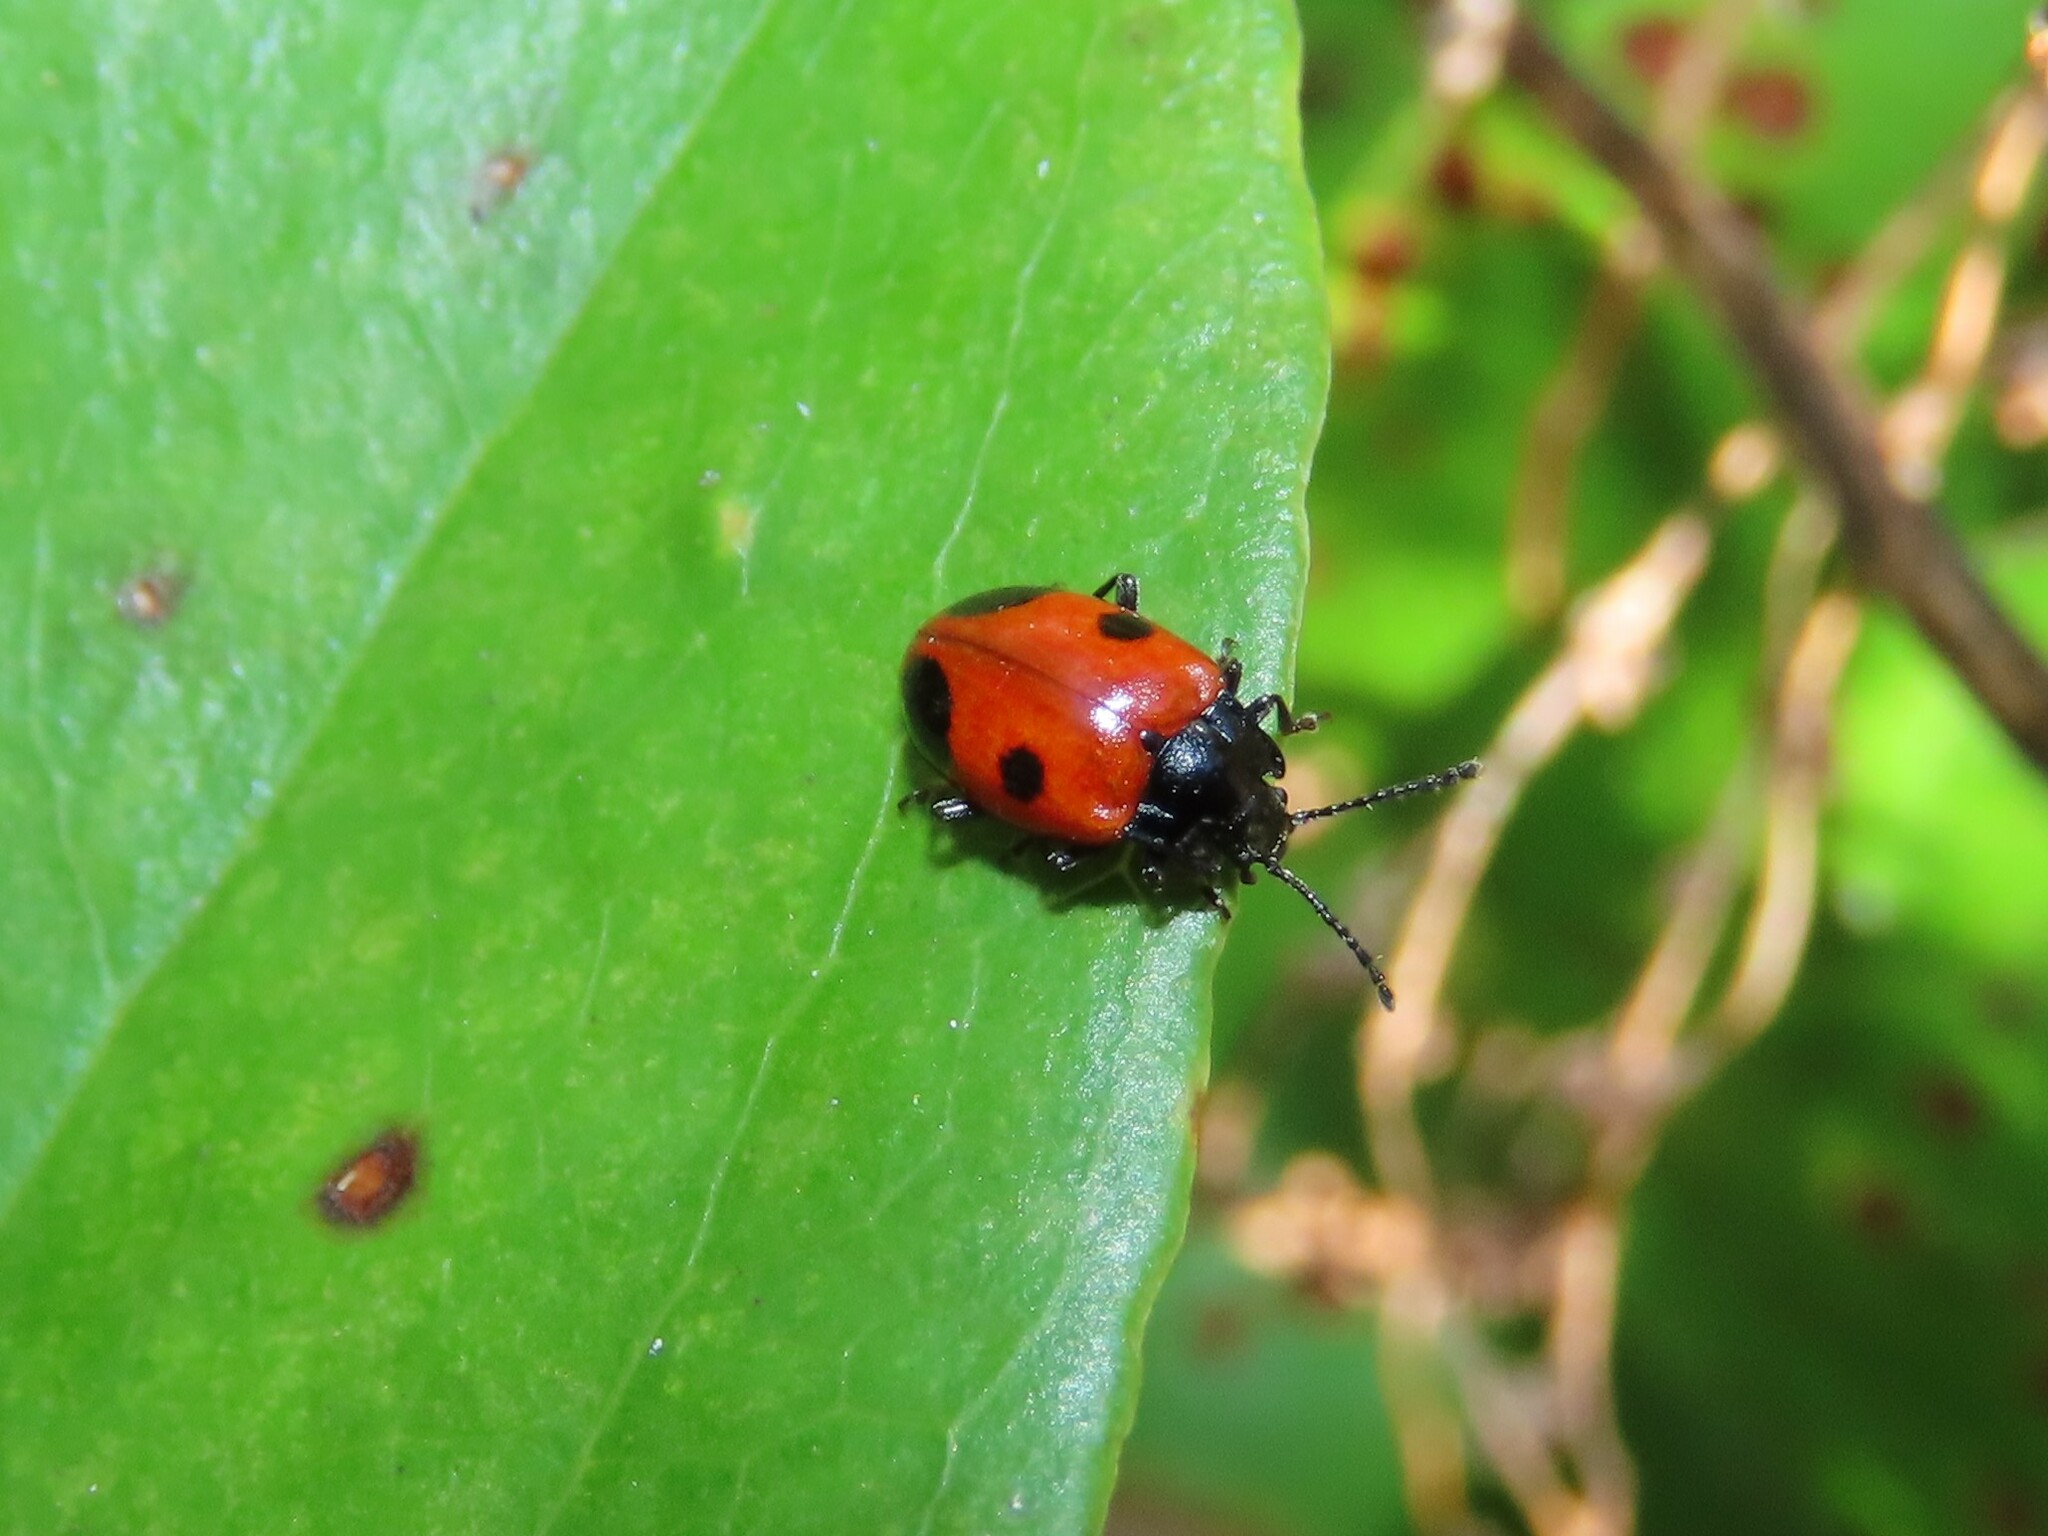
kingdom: Animalia
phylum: Arthropoda
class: Insecta
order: Coleoptera
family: Endomychidae
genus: Endomychus
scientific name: Endomychus biguttatus
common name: Handsome fungus beetle
